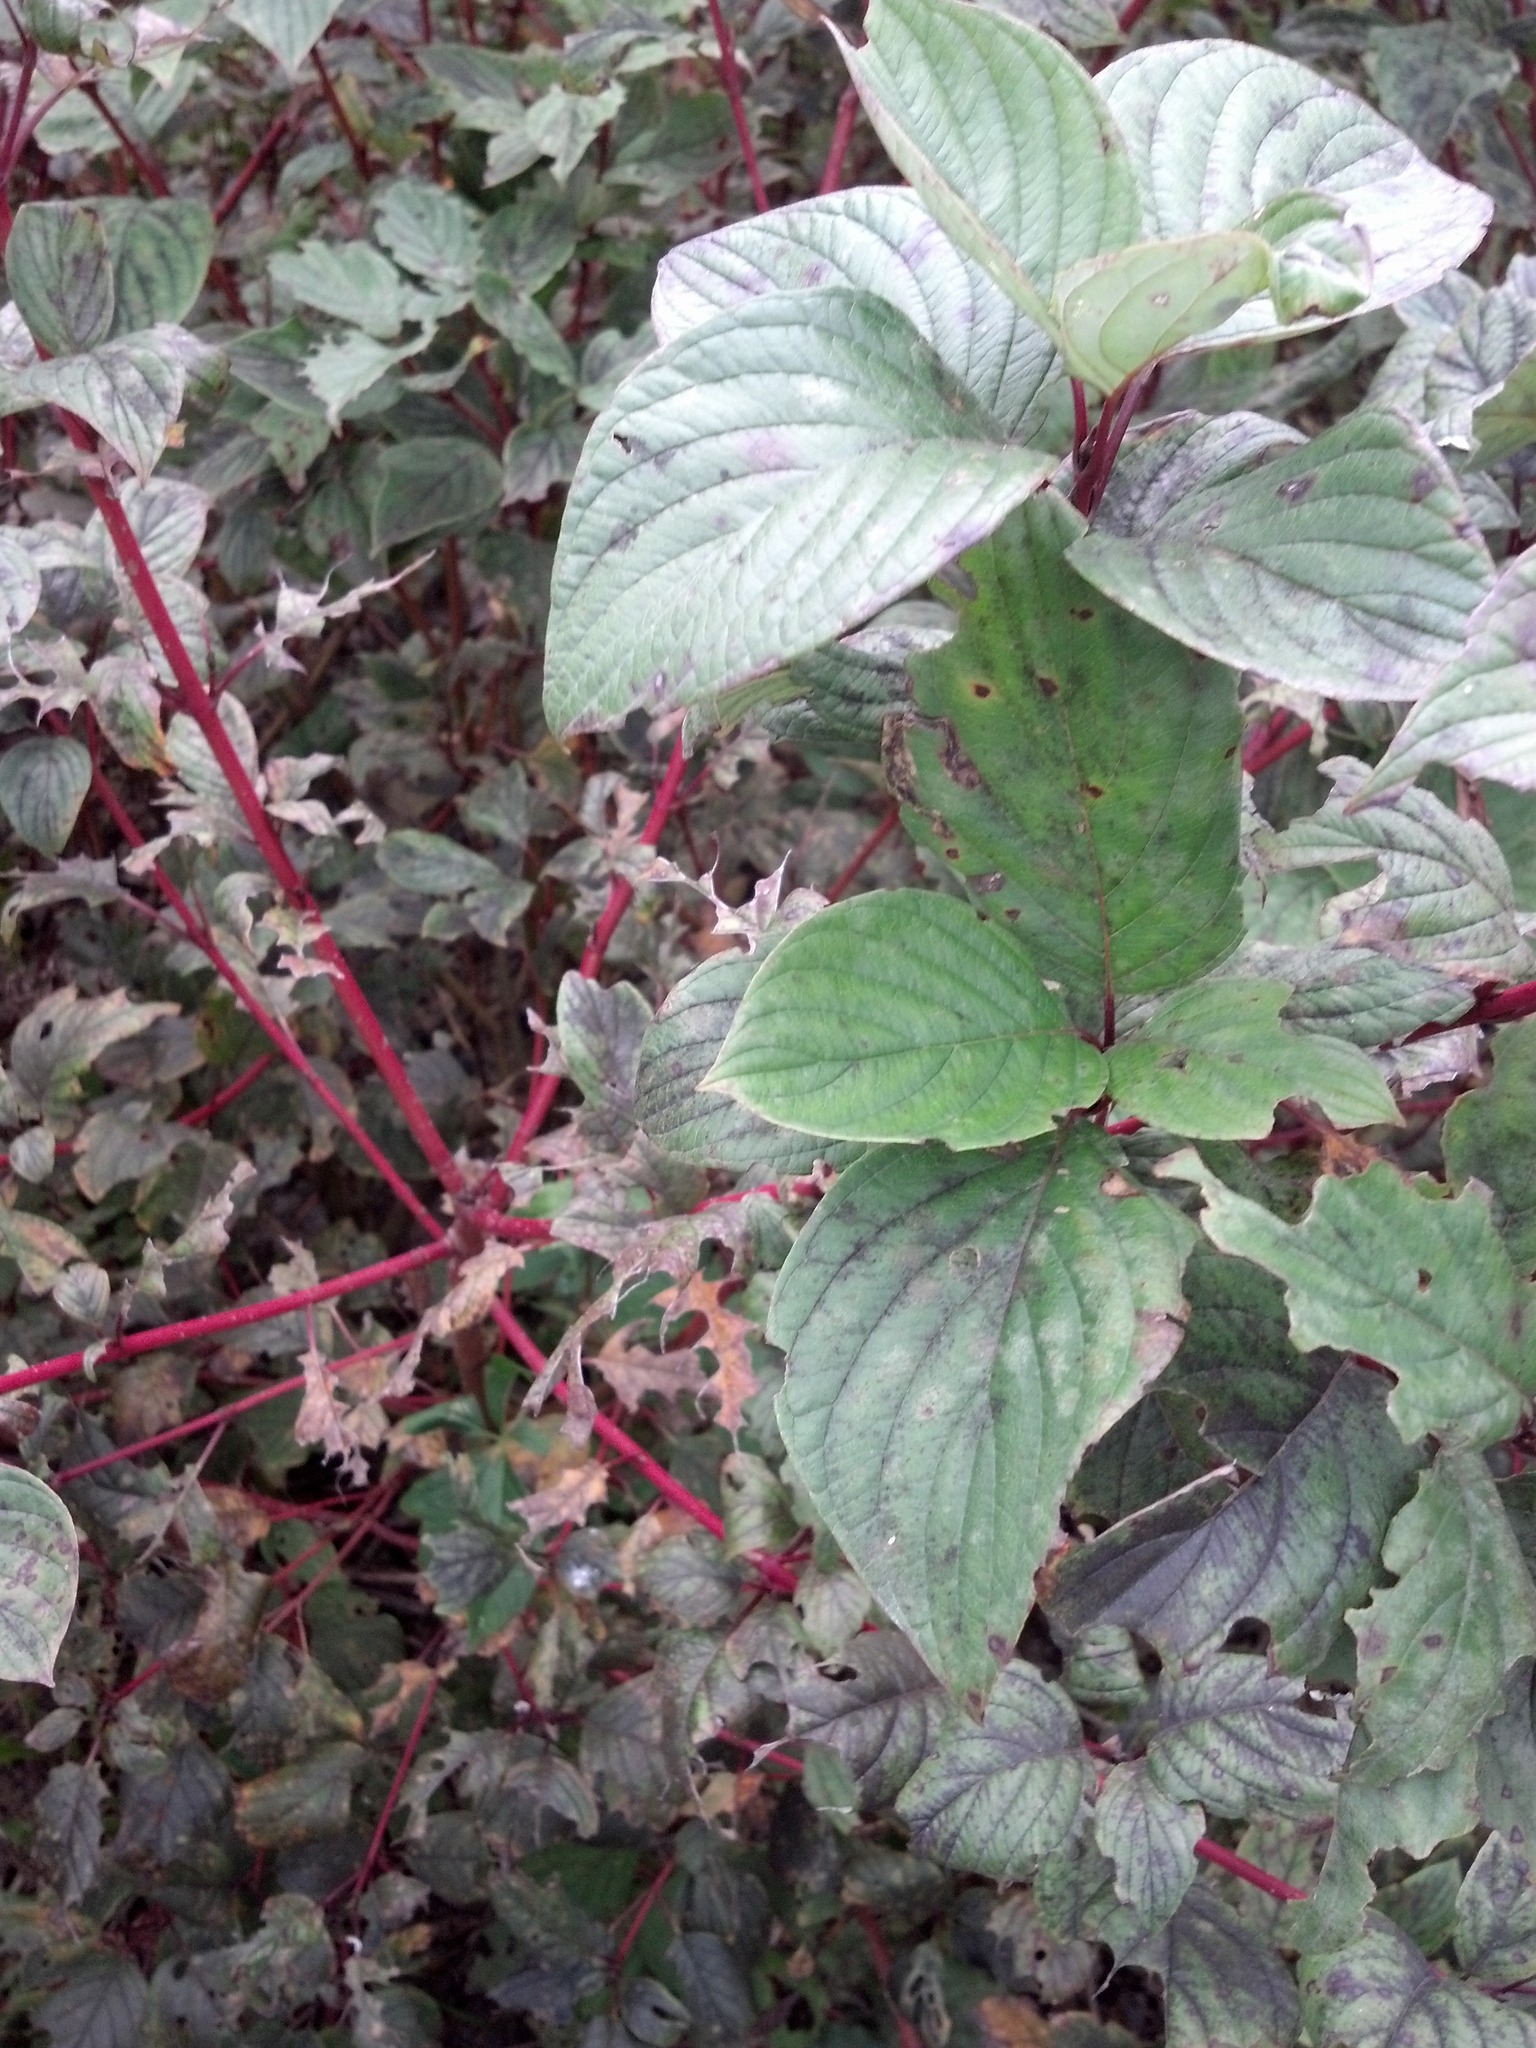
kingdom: Plantae
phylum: Tracheophyta
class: Magnoliopsida
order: Cornales
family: Cornaceae
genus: Cornus
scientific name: Cornus sericea
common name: Red-osier dogwood
